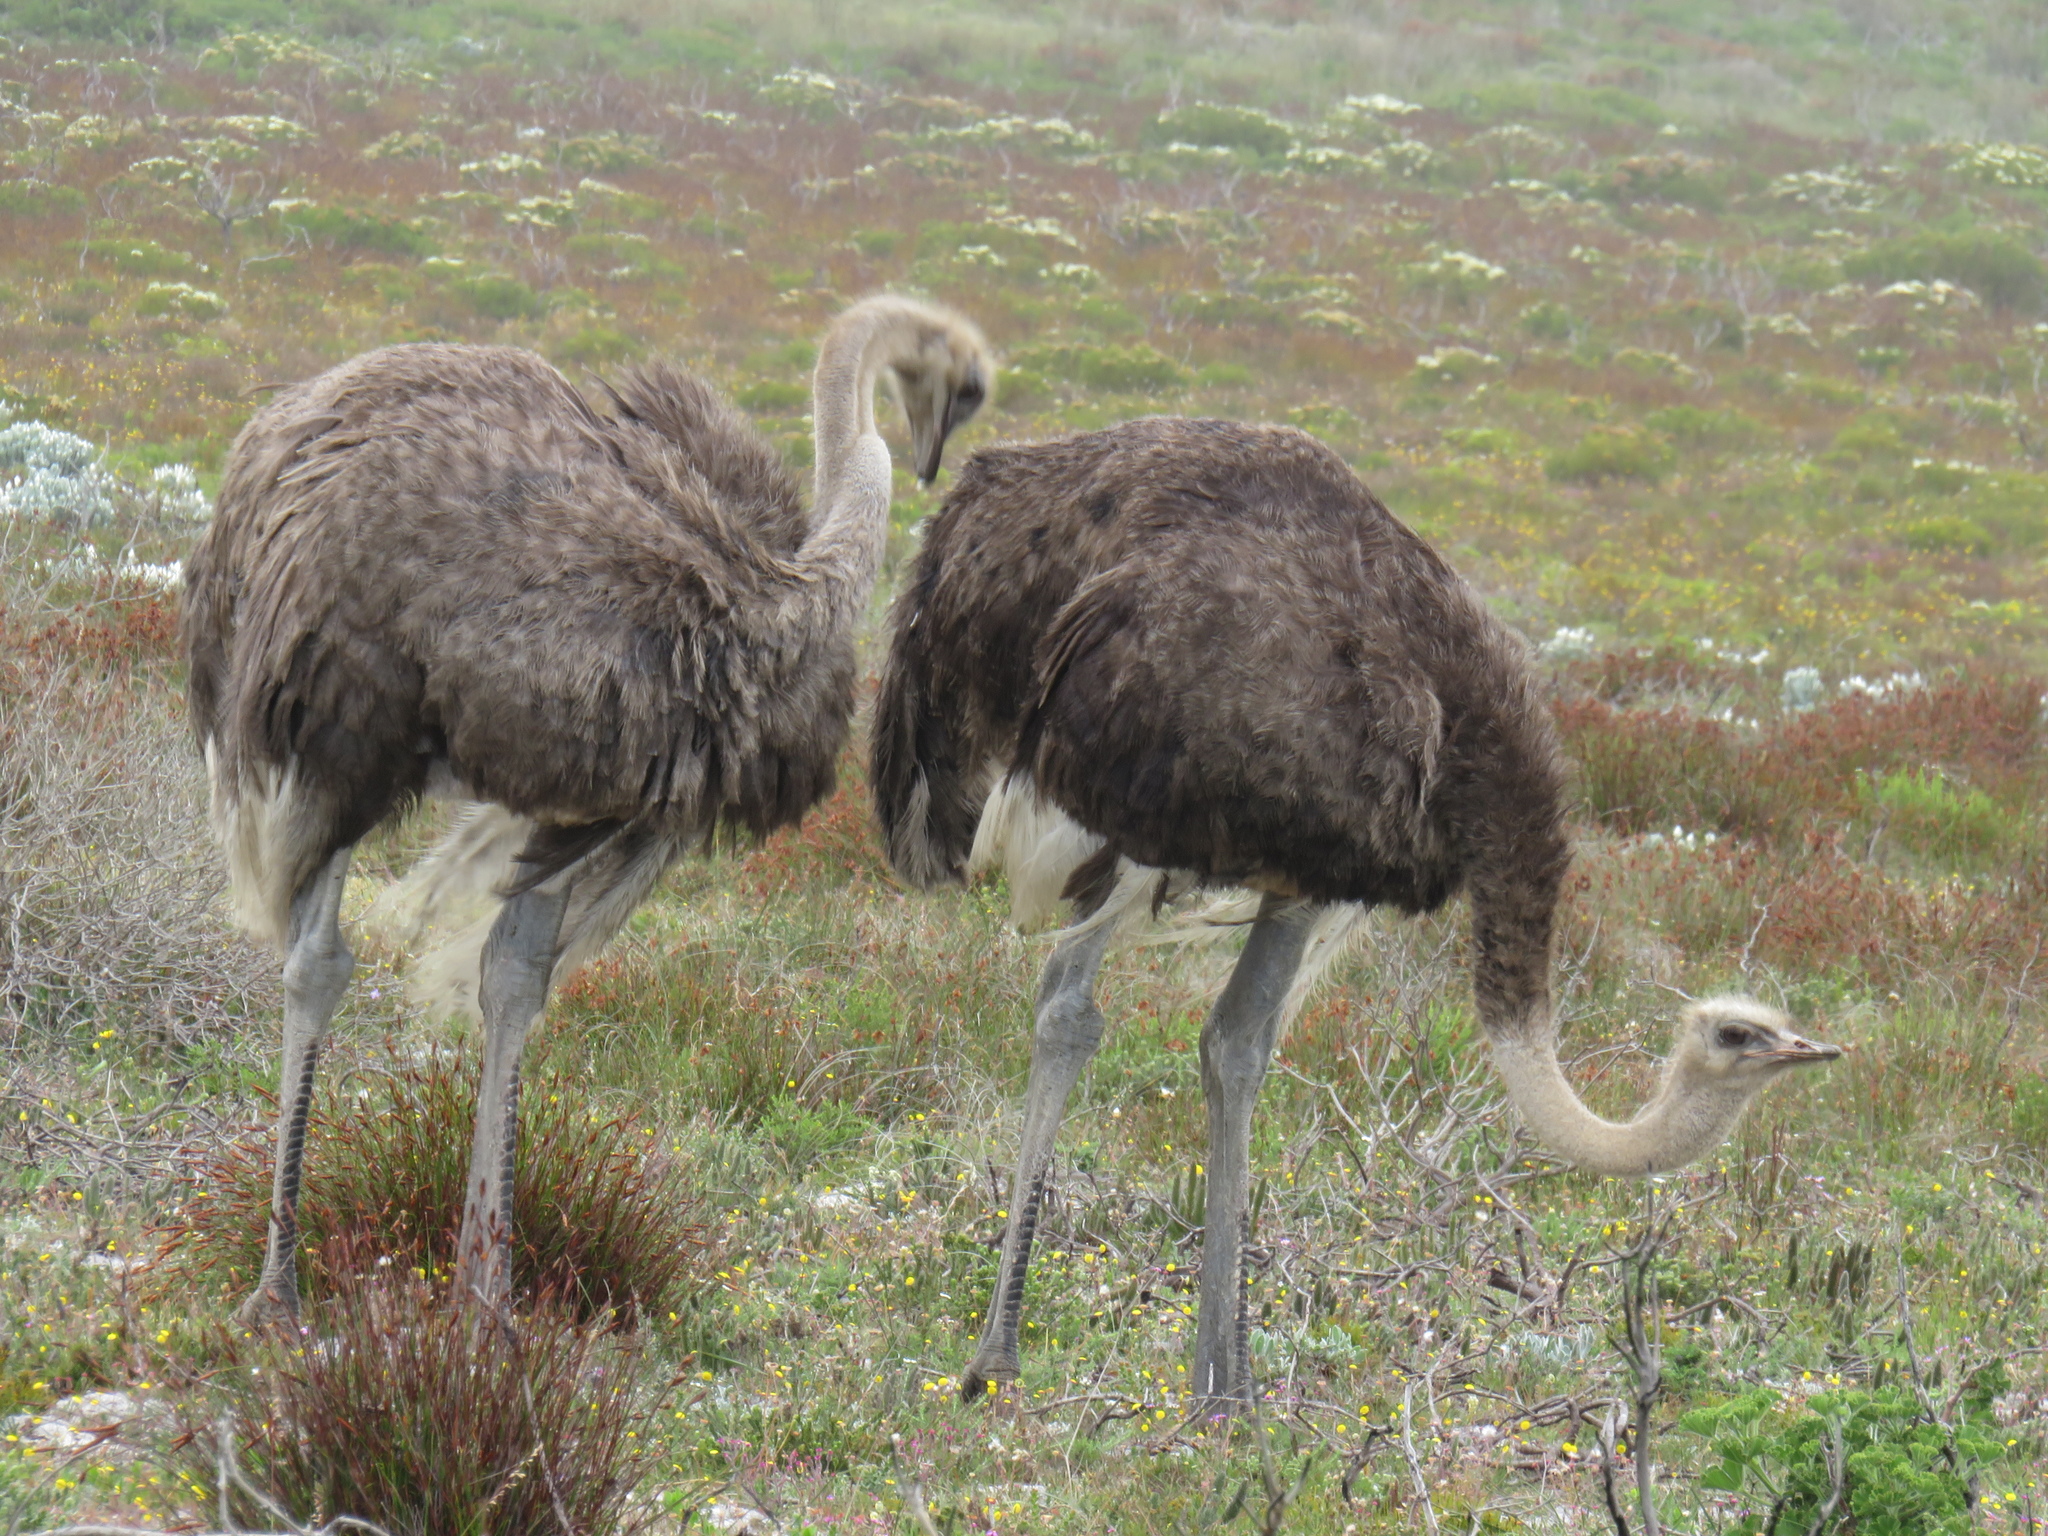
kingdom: Animalia
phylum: Chordata
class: Aves
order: Struthioniformes
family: Struthionidae
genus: Struthio
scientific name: Struthio camelus
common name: Common ostrich
